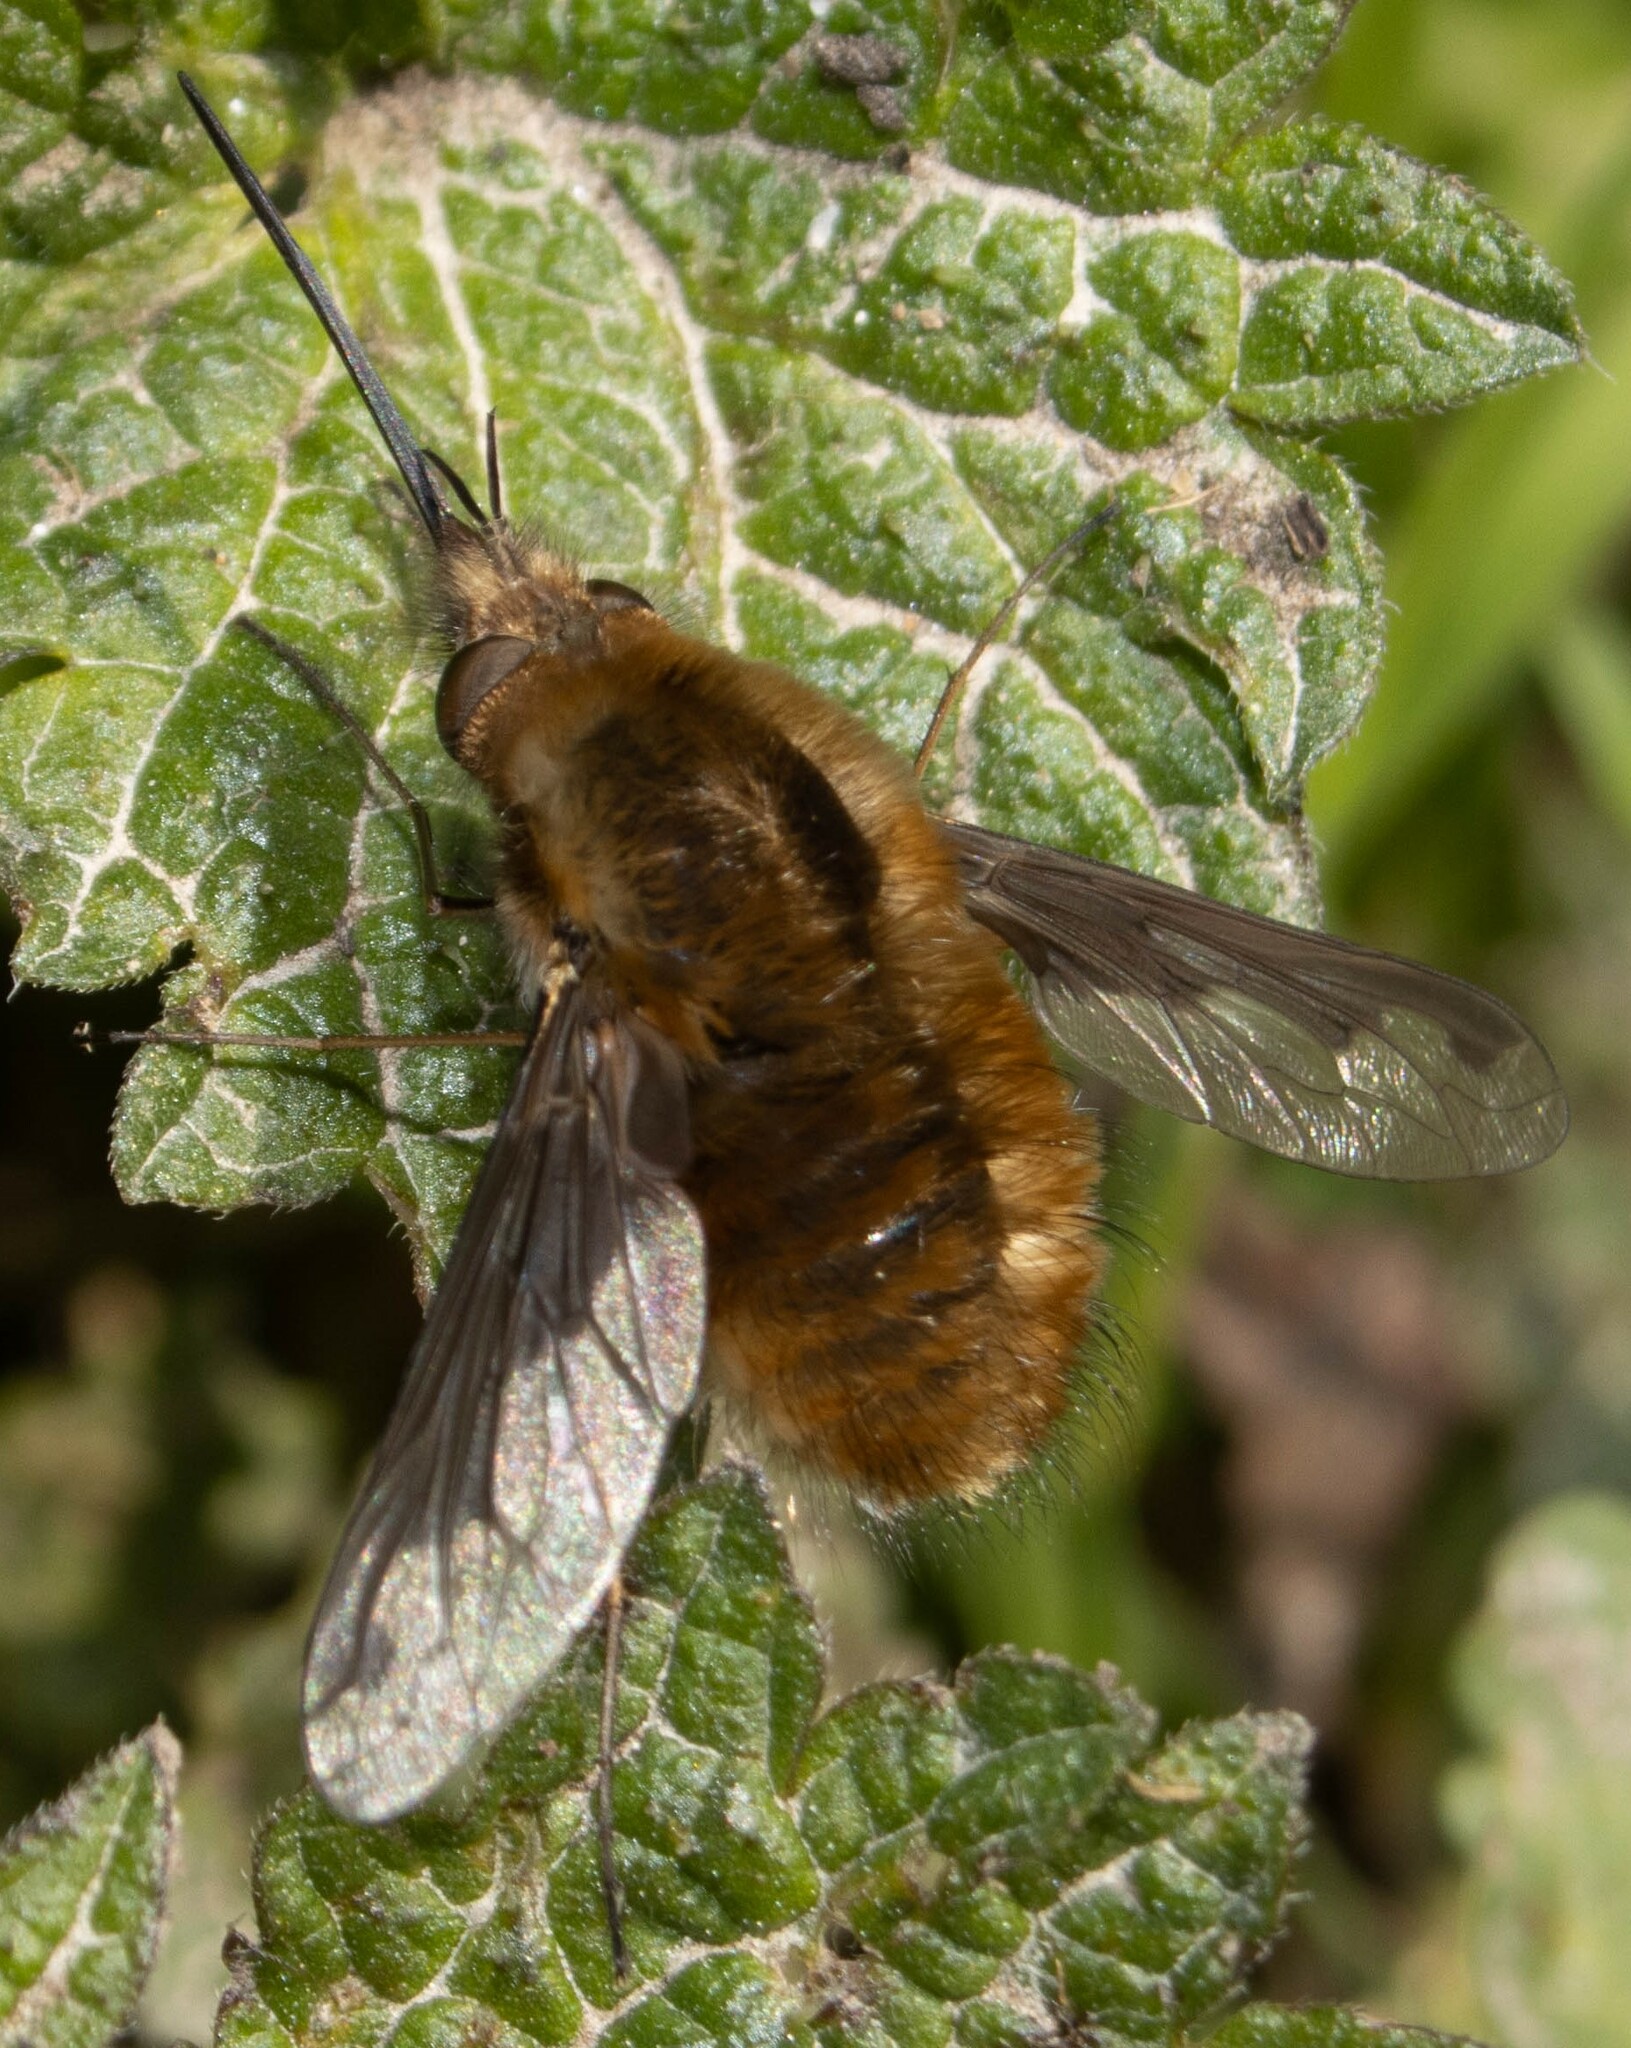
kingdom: Animalia
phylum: Arthropoda
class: Insecta
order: Diptera
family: Bombyliidae
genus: Bombylius
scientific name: Bombylius major
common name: Bee fly
